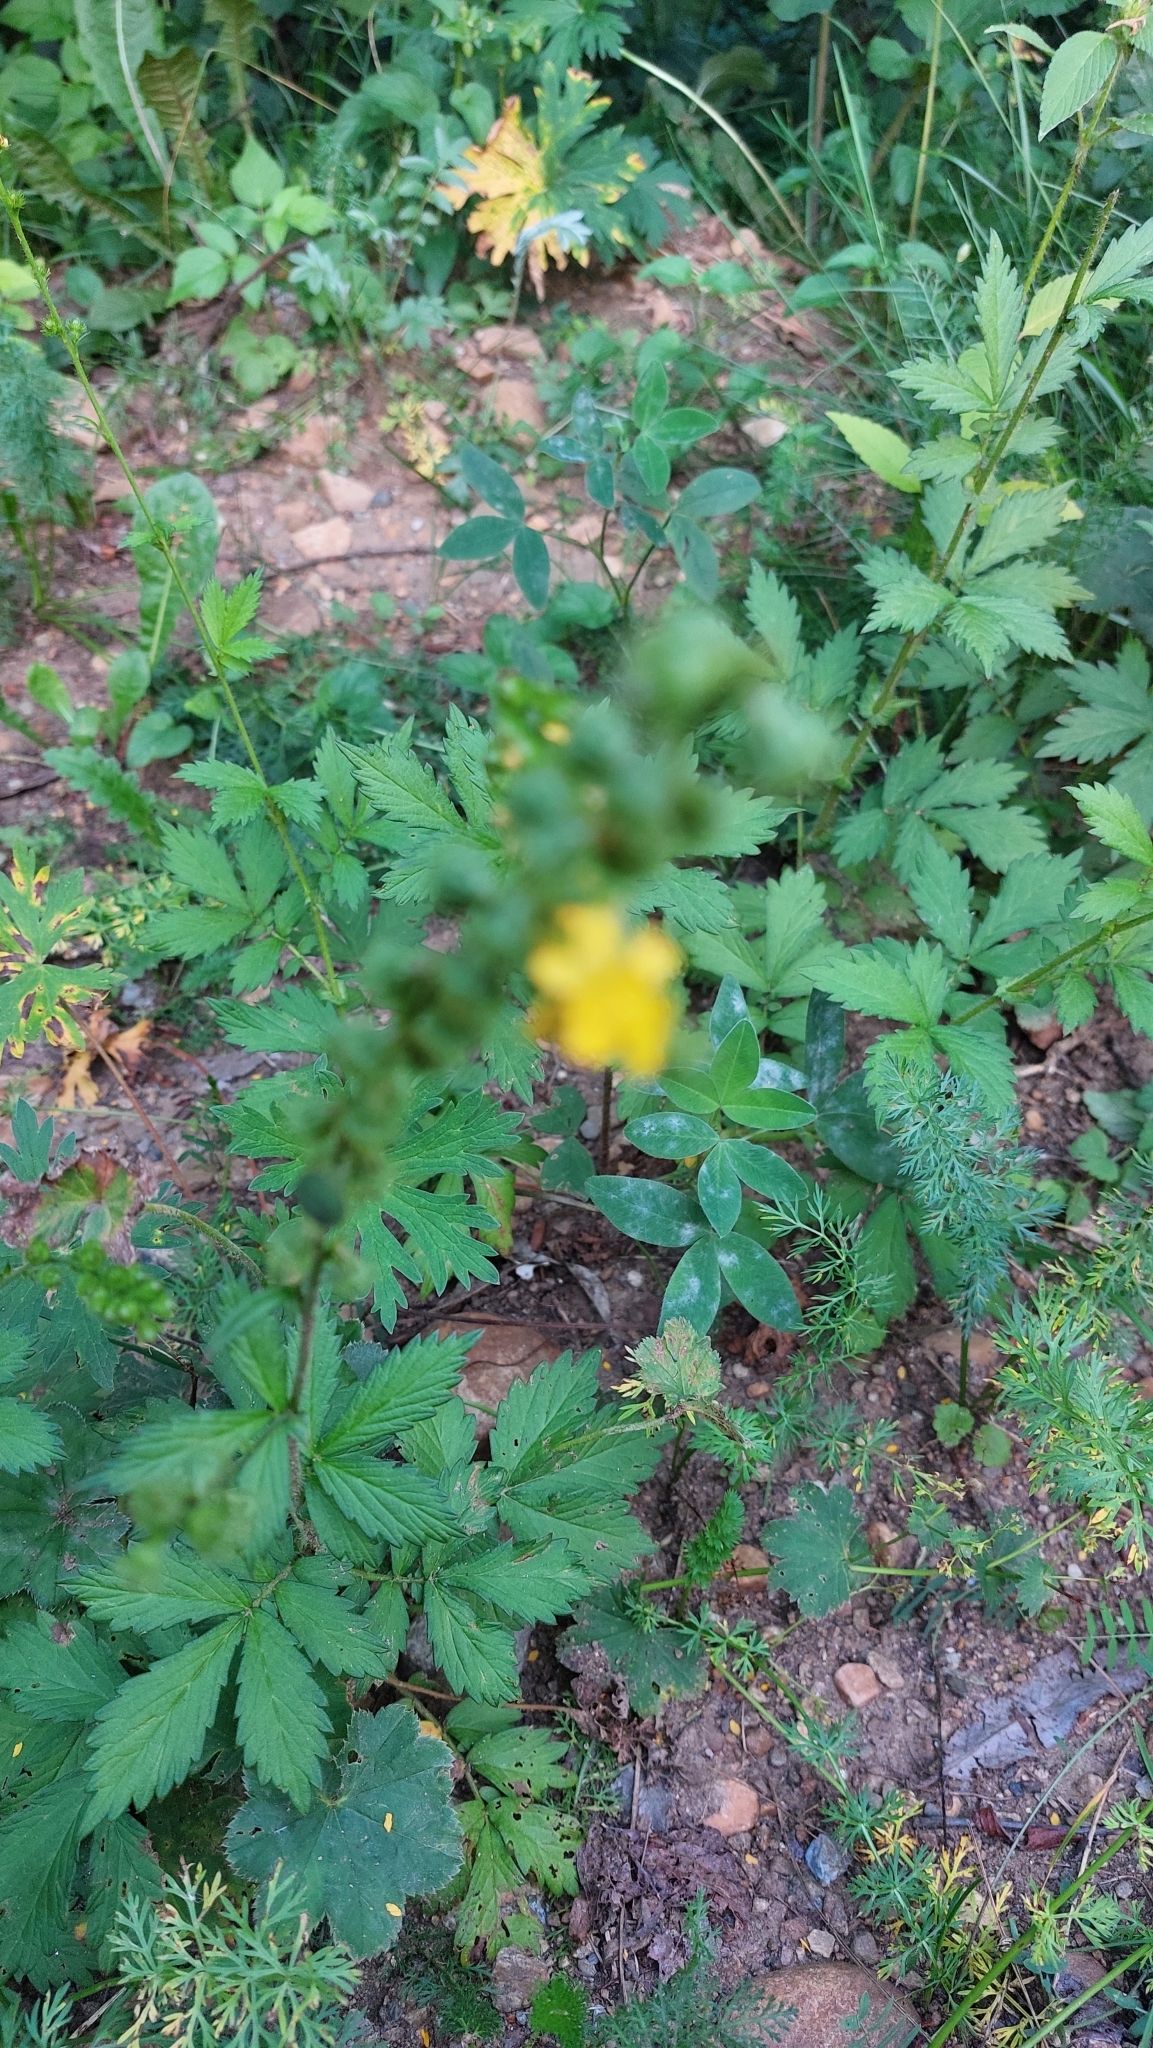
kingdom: Plantae
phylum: Tracheophyta
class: Magnoliopsida
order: Rosales
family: Rosaceae
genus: Agrimonia
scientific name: Agrimonia pilosa
